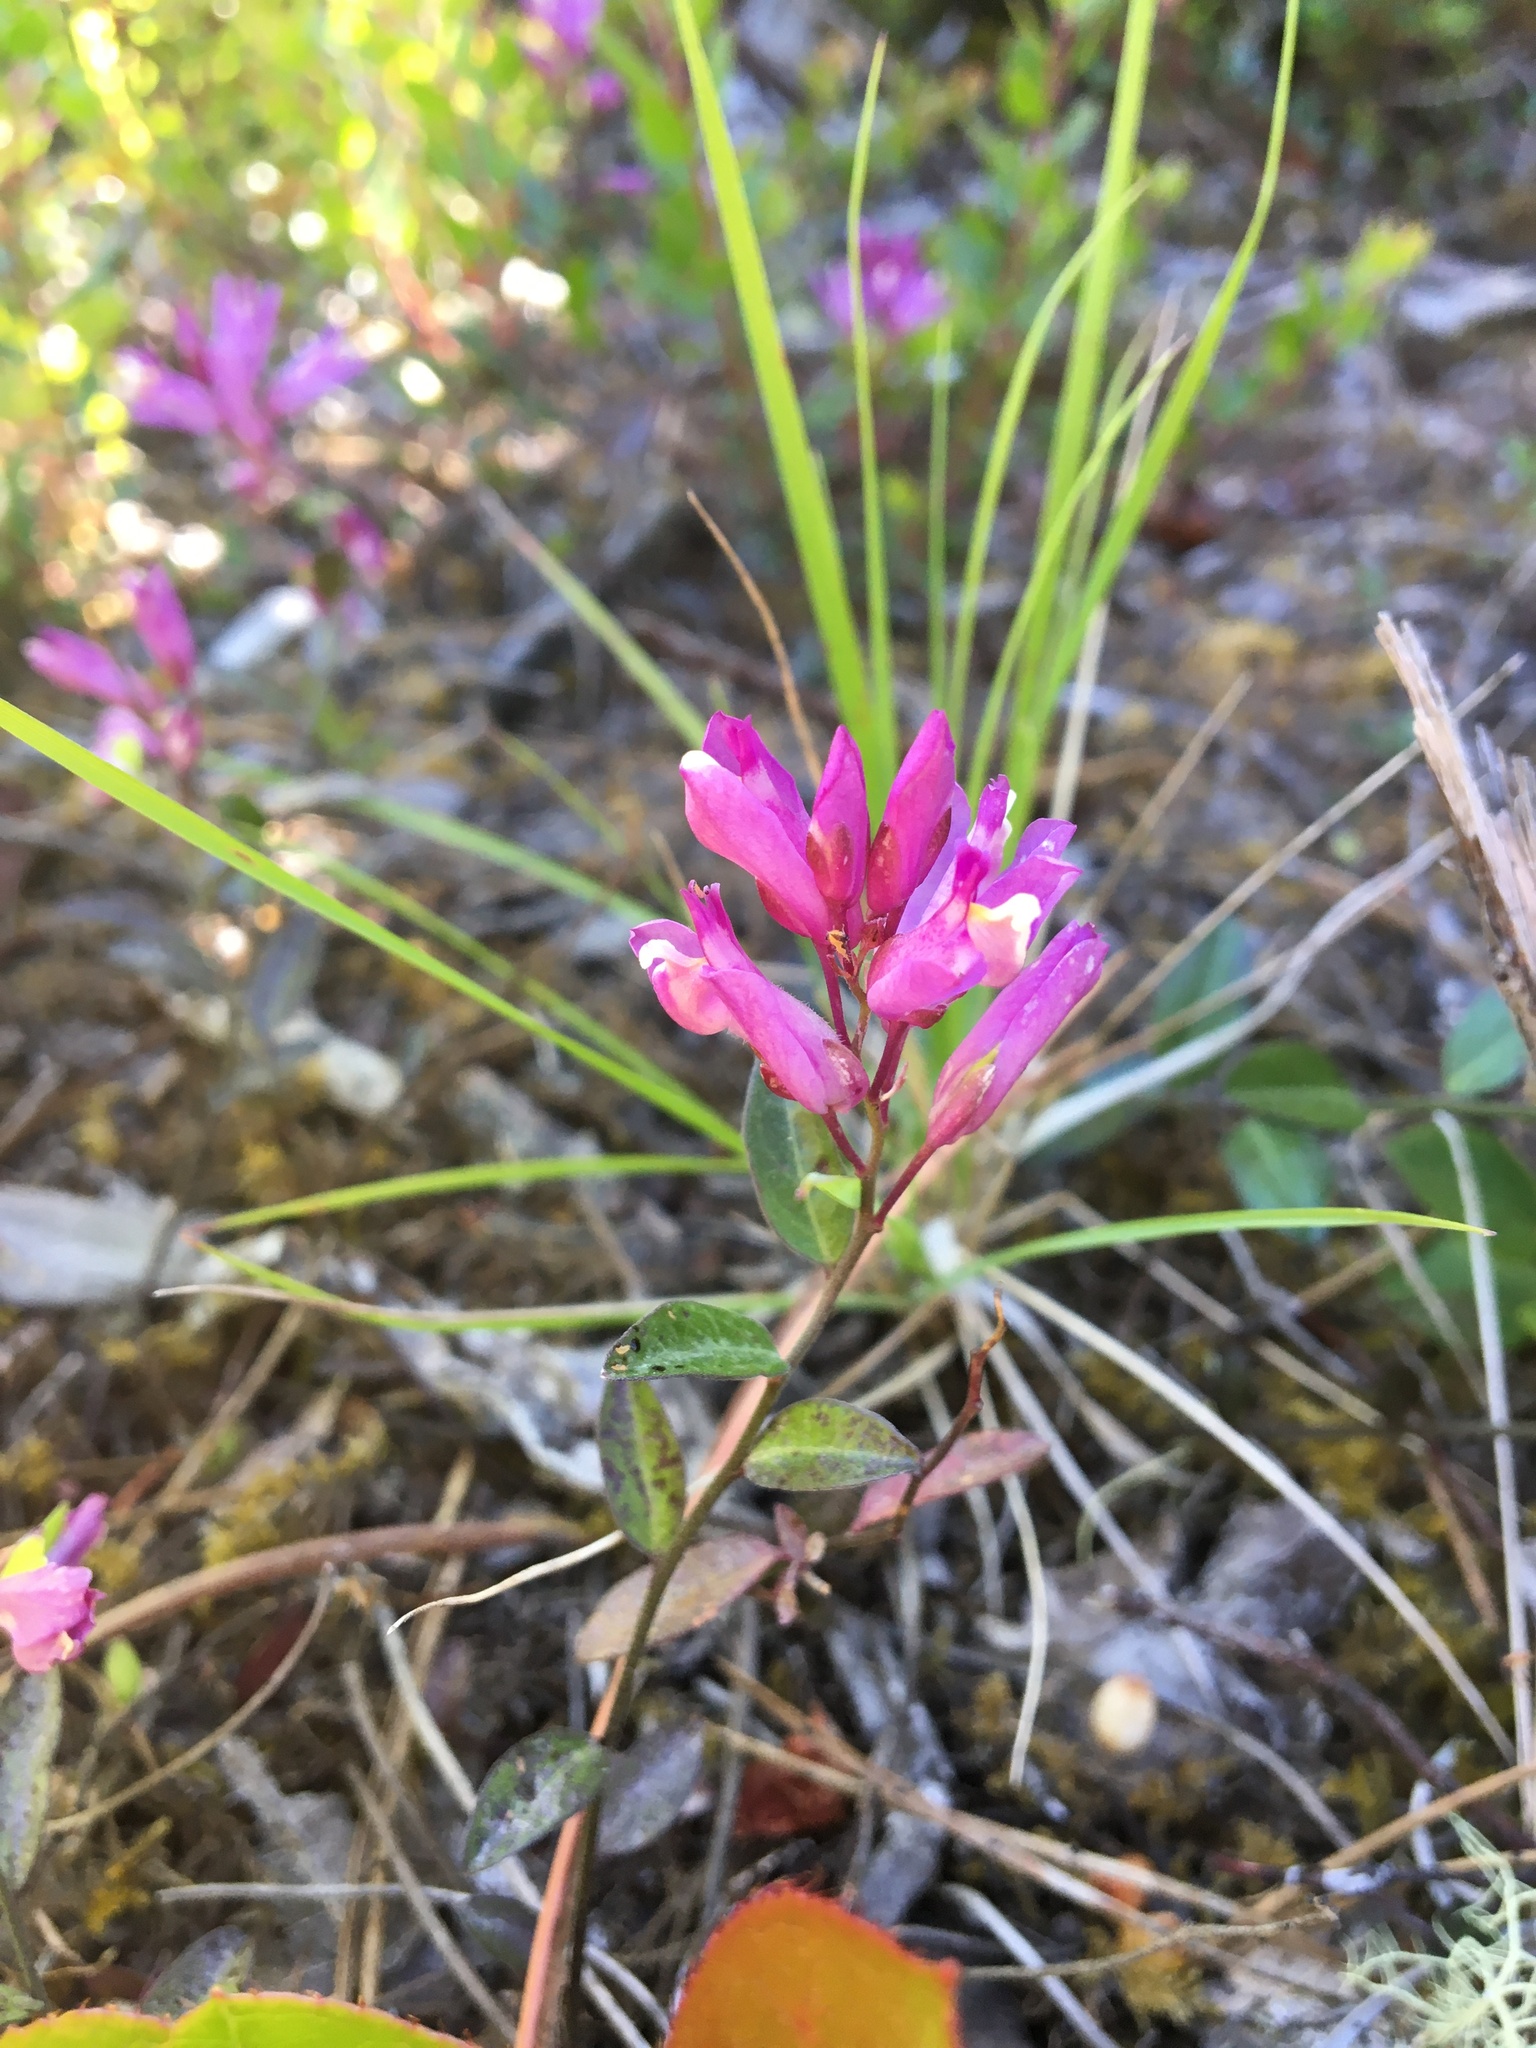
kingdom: Plantae
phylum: Tracheophyta
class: Magnoliopsida
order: Fabales
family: Polygalaceae
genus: Rhinotropis
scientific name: Rhinotropis californica
